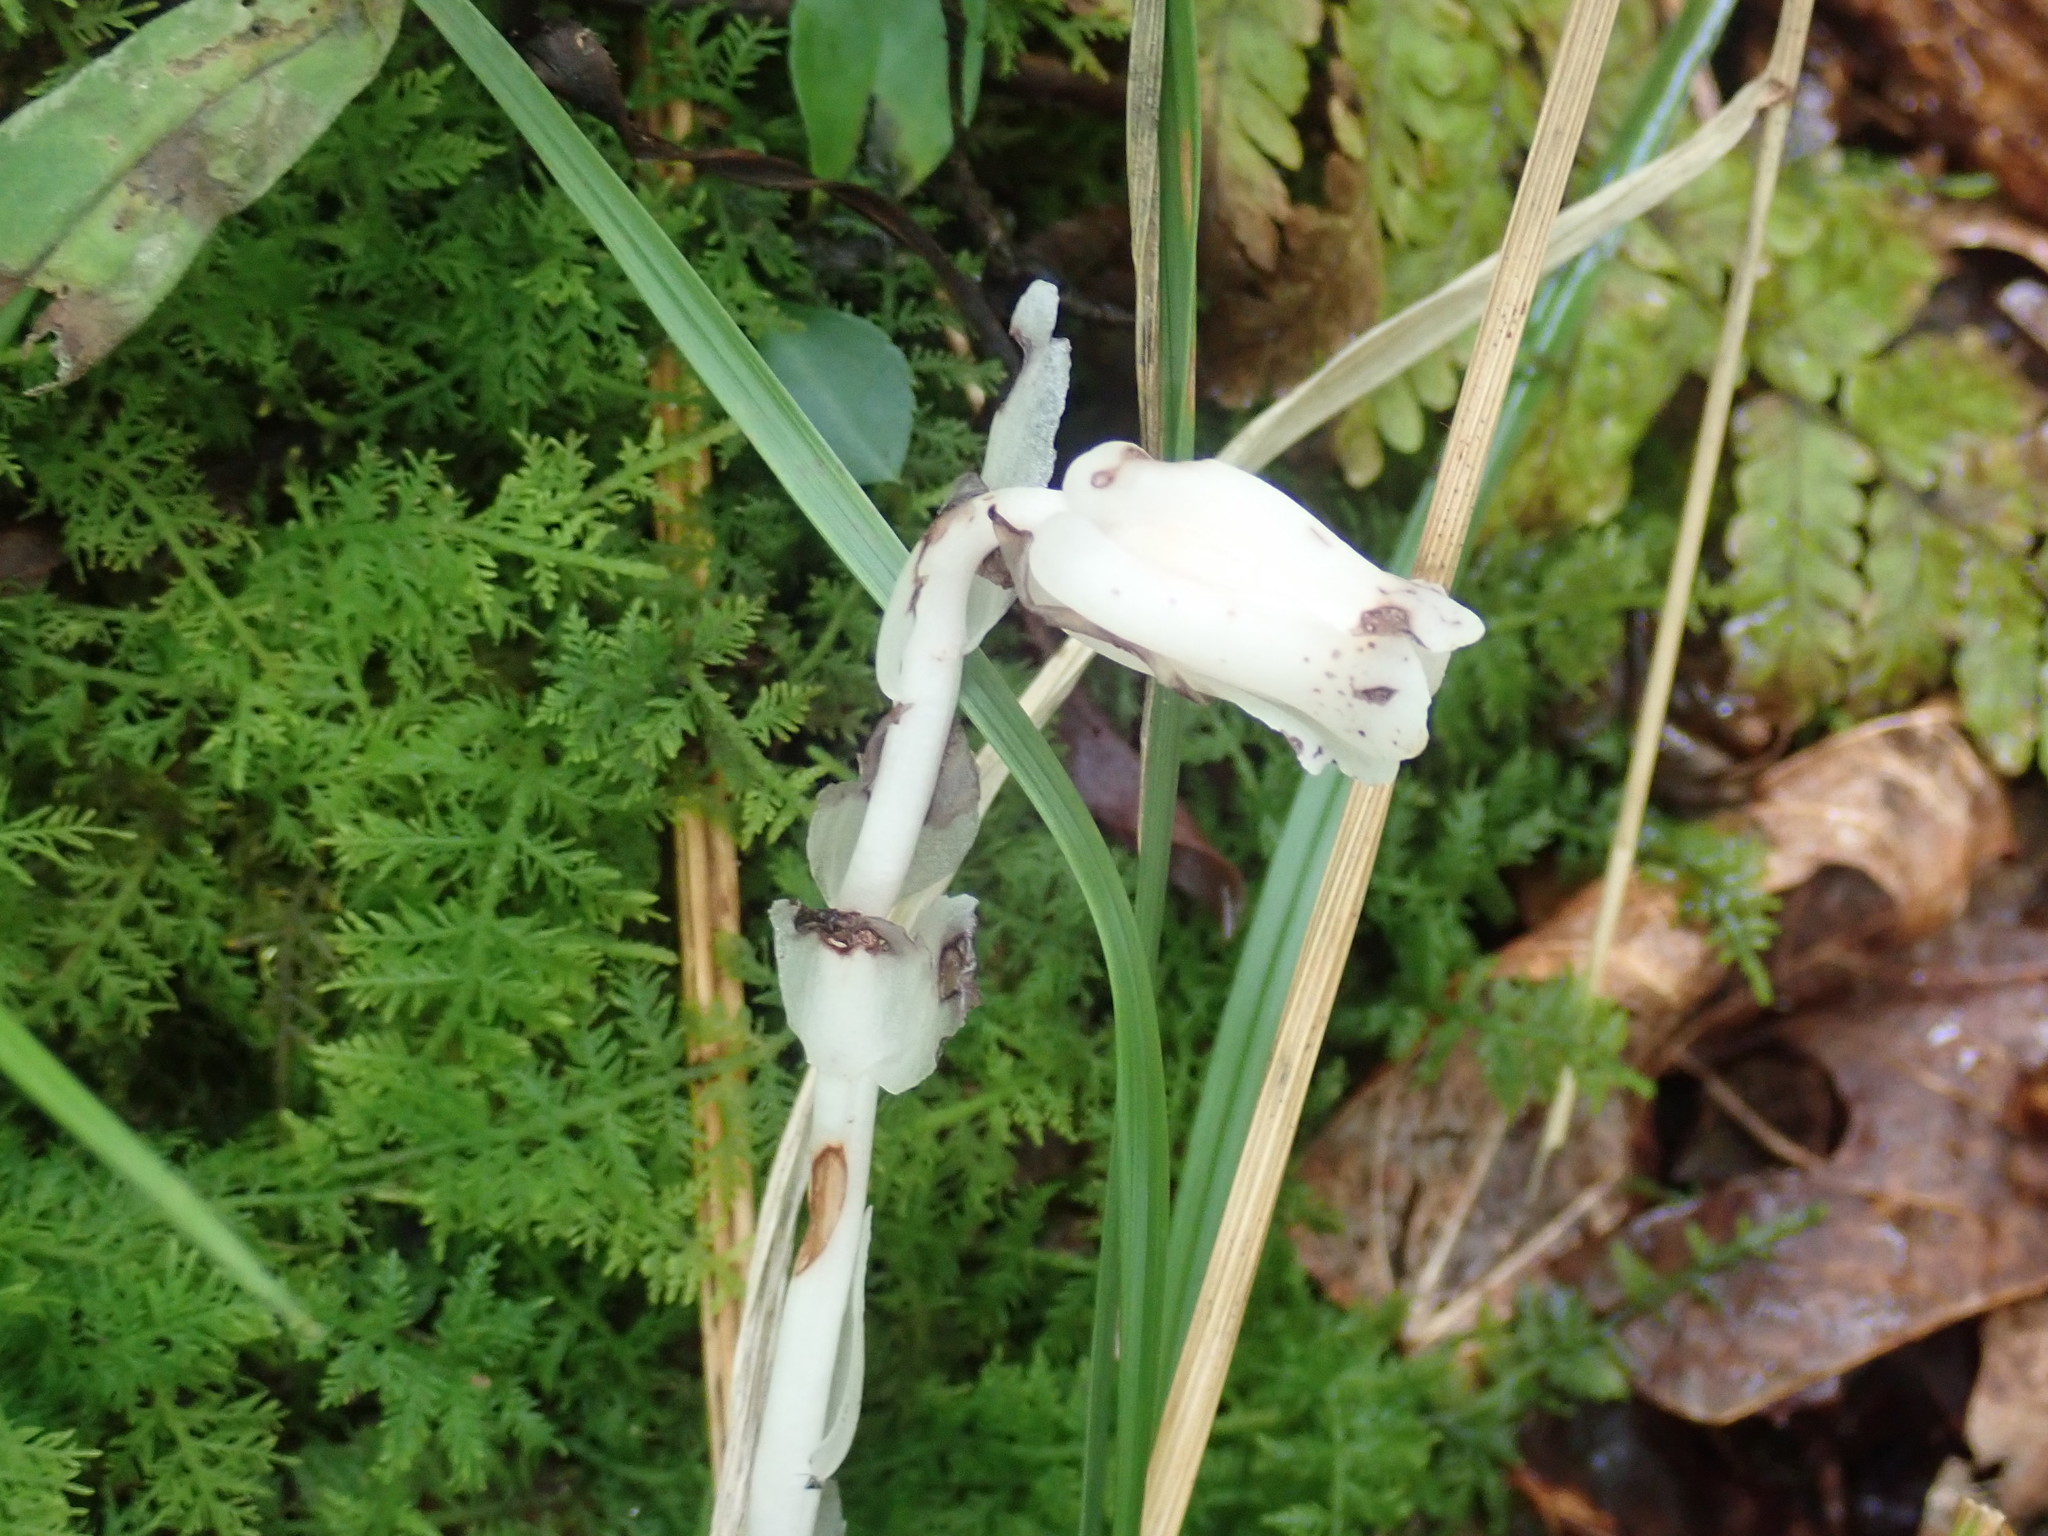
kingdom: Plantae
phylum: Tracheophyta
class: Magnoliopsida
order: Ericales
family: Ericaceae
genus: Monotropa
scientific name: Monotropa uniflora
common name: Convulsion root
